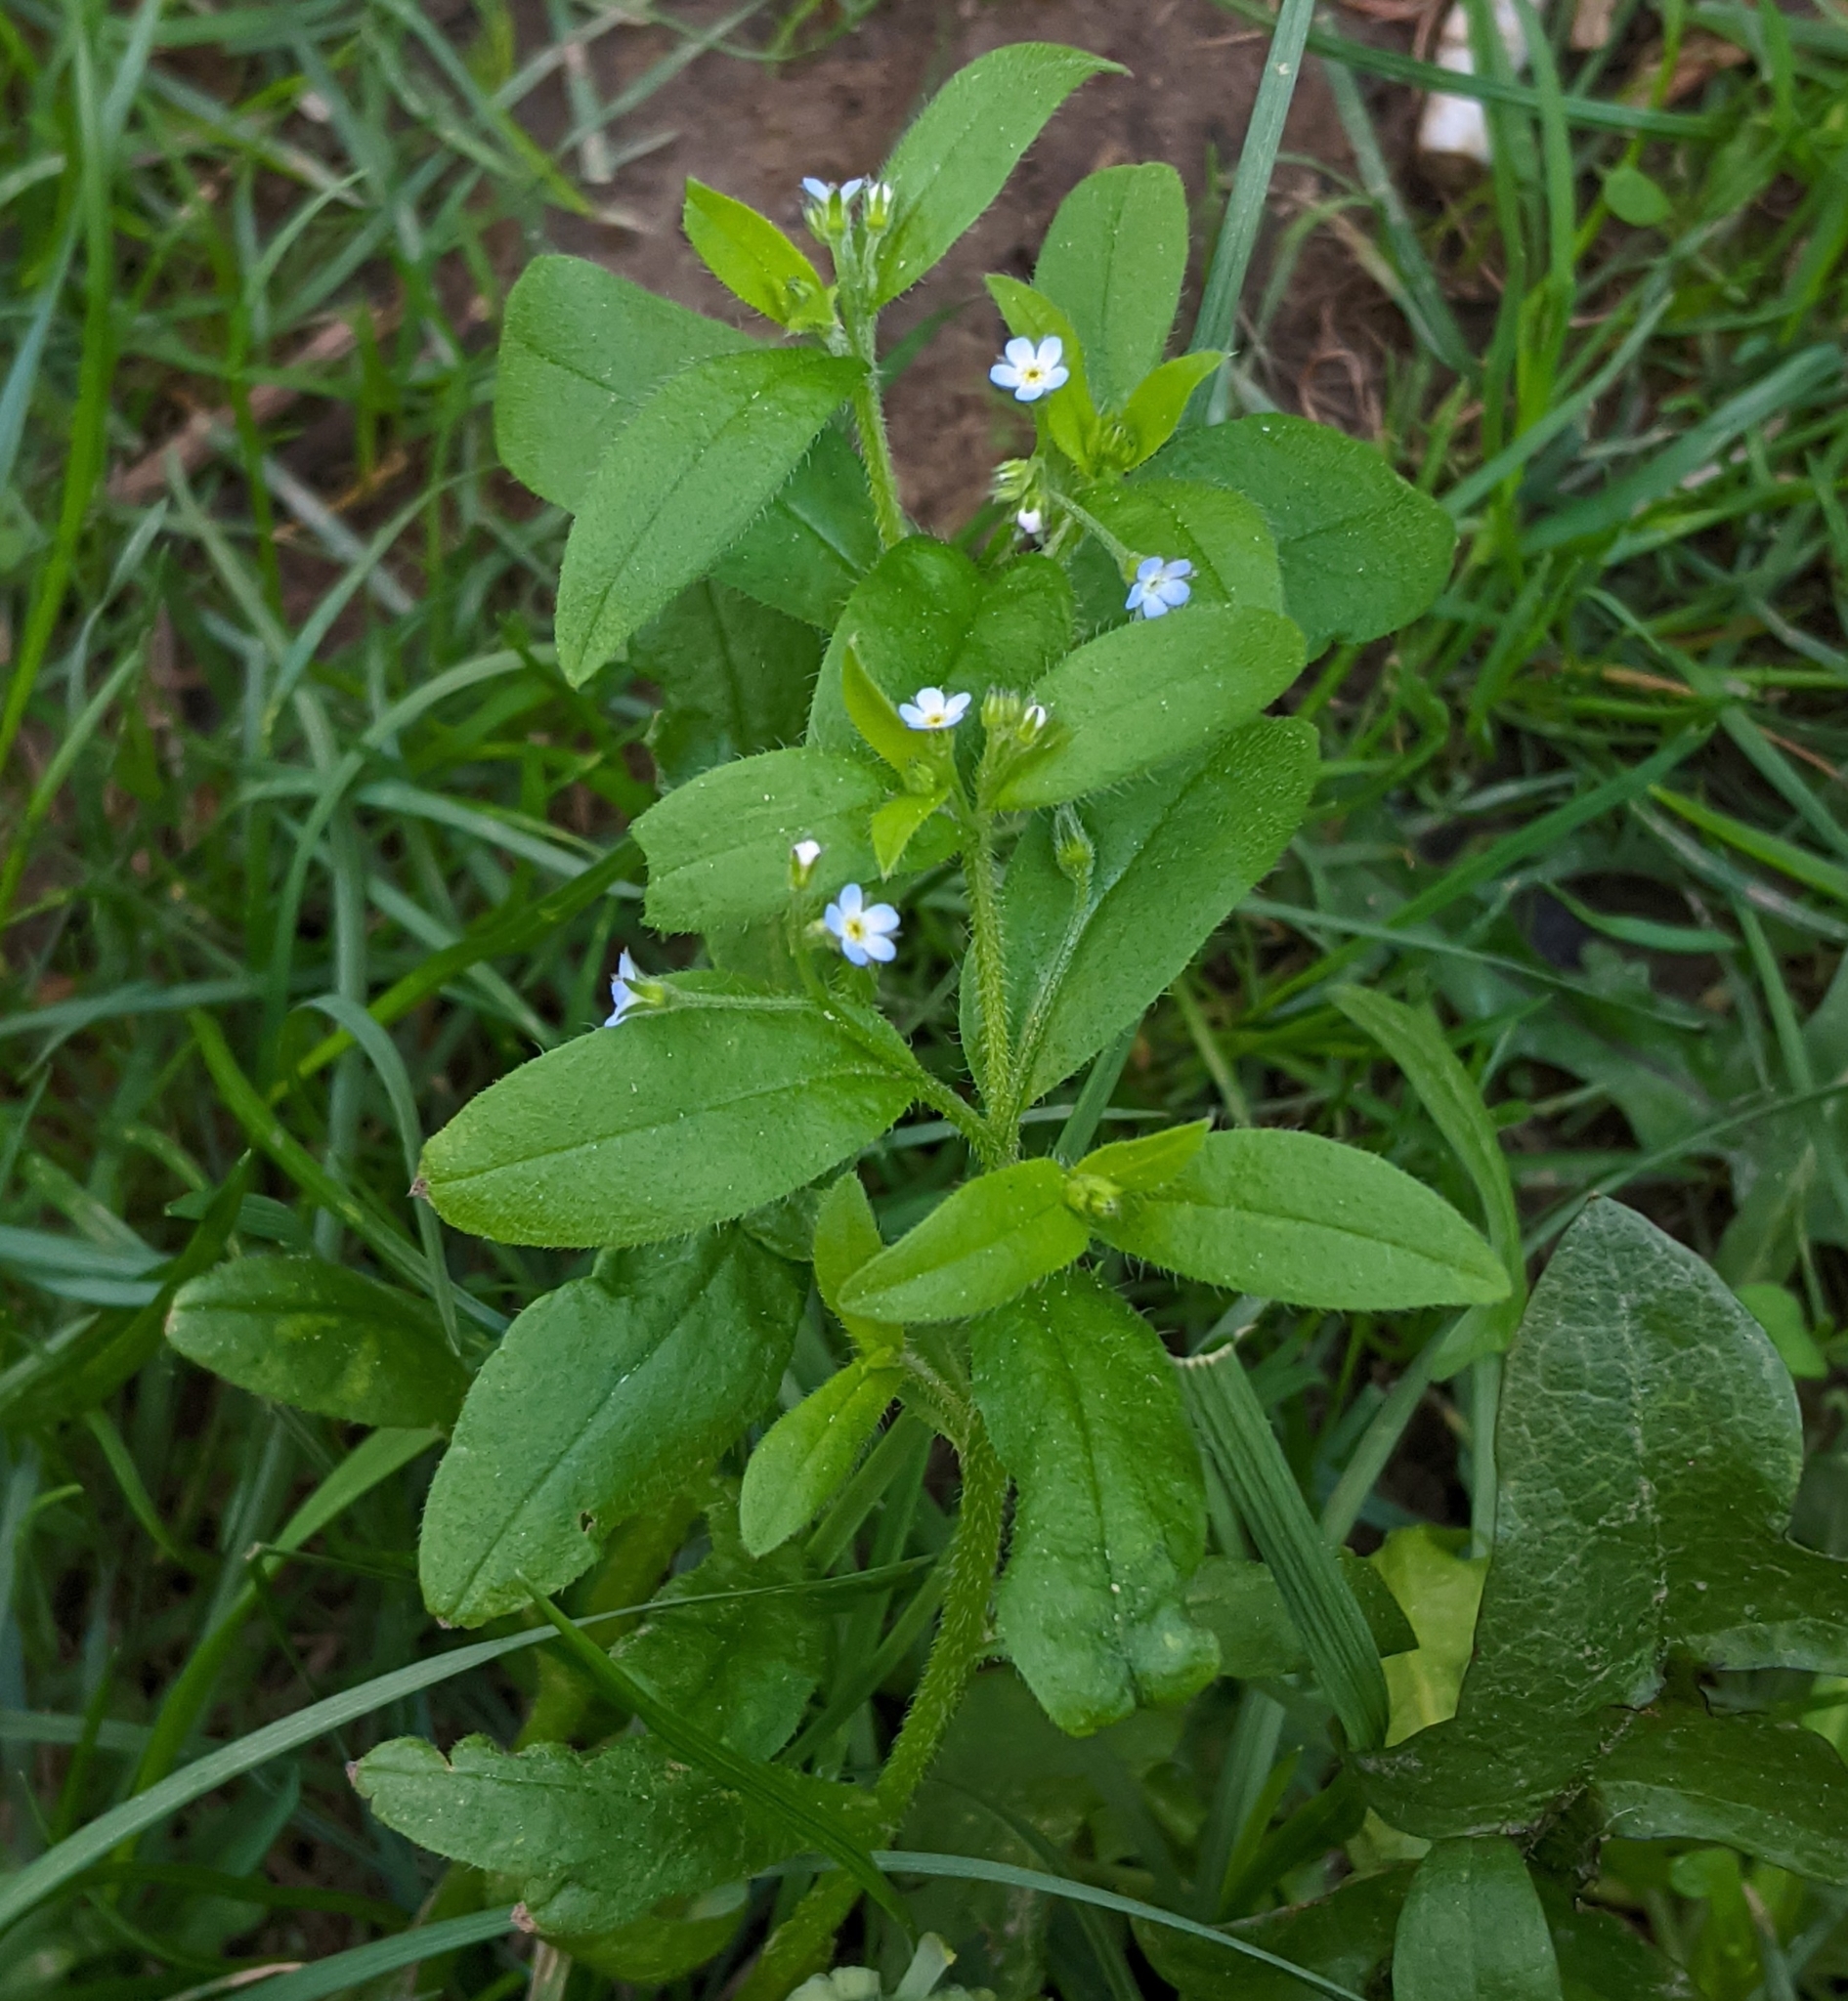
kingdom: Plantae
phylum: Tracheophyta
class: Magnoliopsida
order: Boraginales
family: Boraginaceae
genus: Myosotis
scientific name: Myosotis sparsiflora
